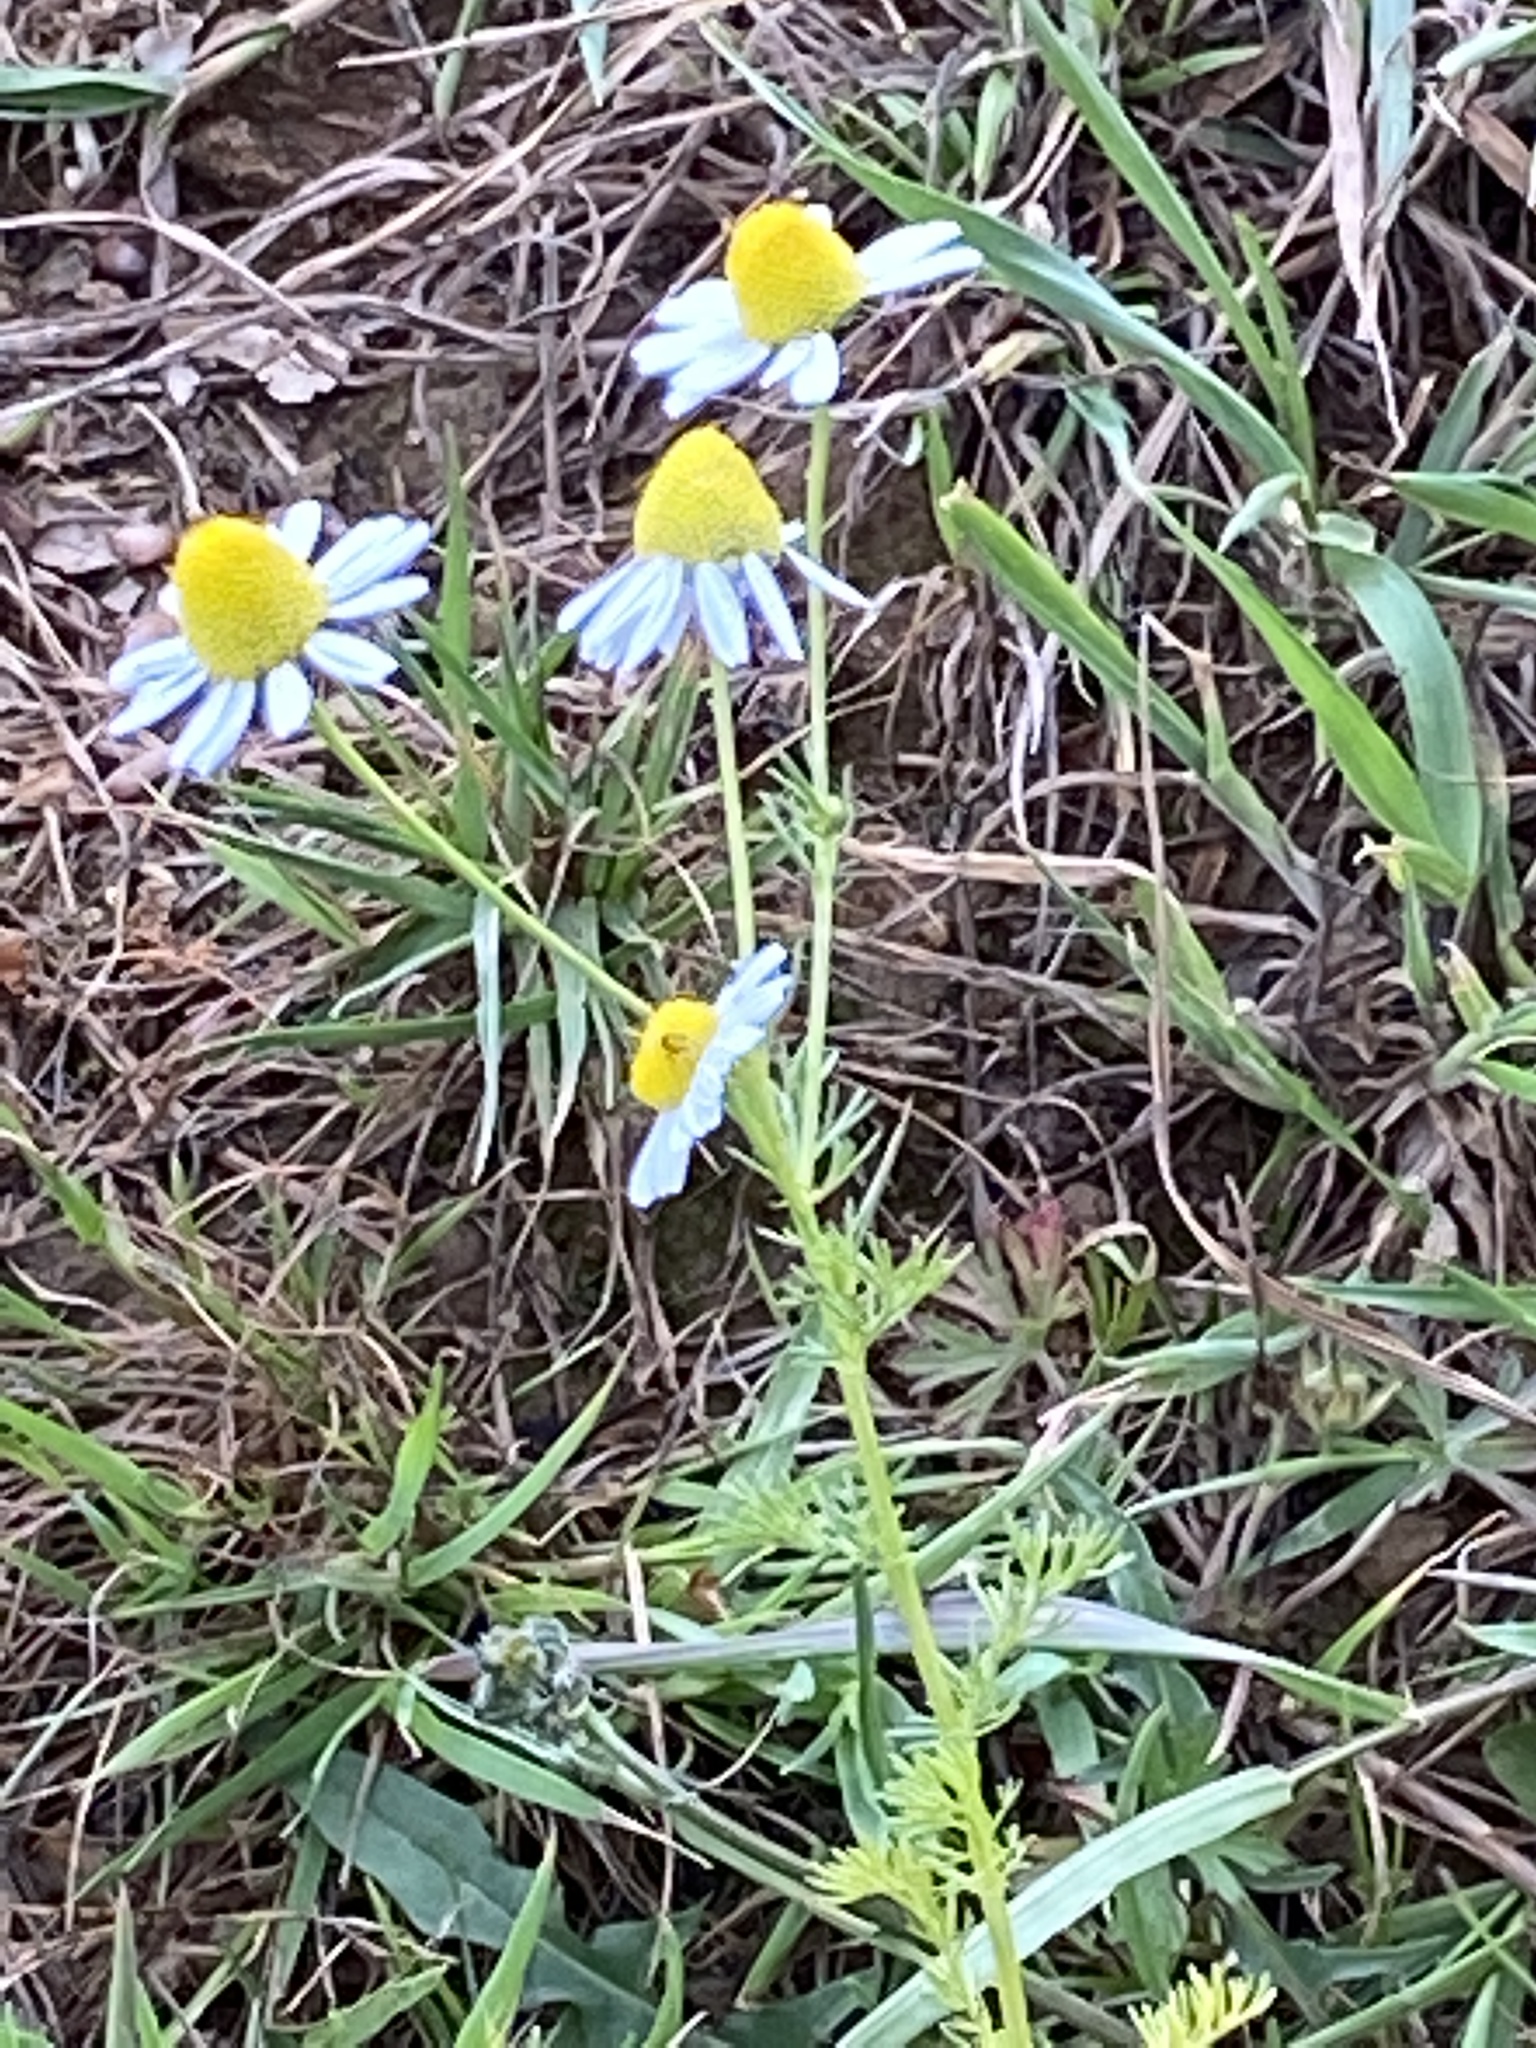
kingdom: Plantae
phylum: Tracheophyta
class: Magnoliopsida
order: Asterales
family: Asteraceae
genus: Tripleurospermum
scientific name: Tripleurospermum inodorum
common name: Scentless mayweed
